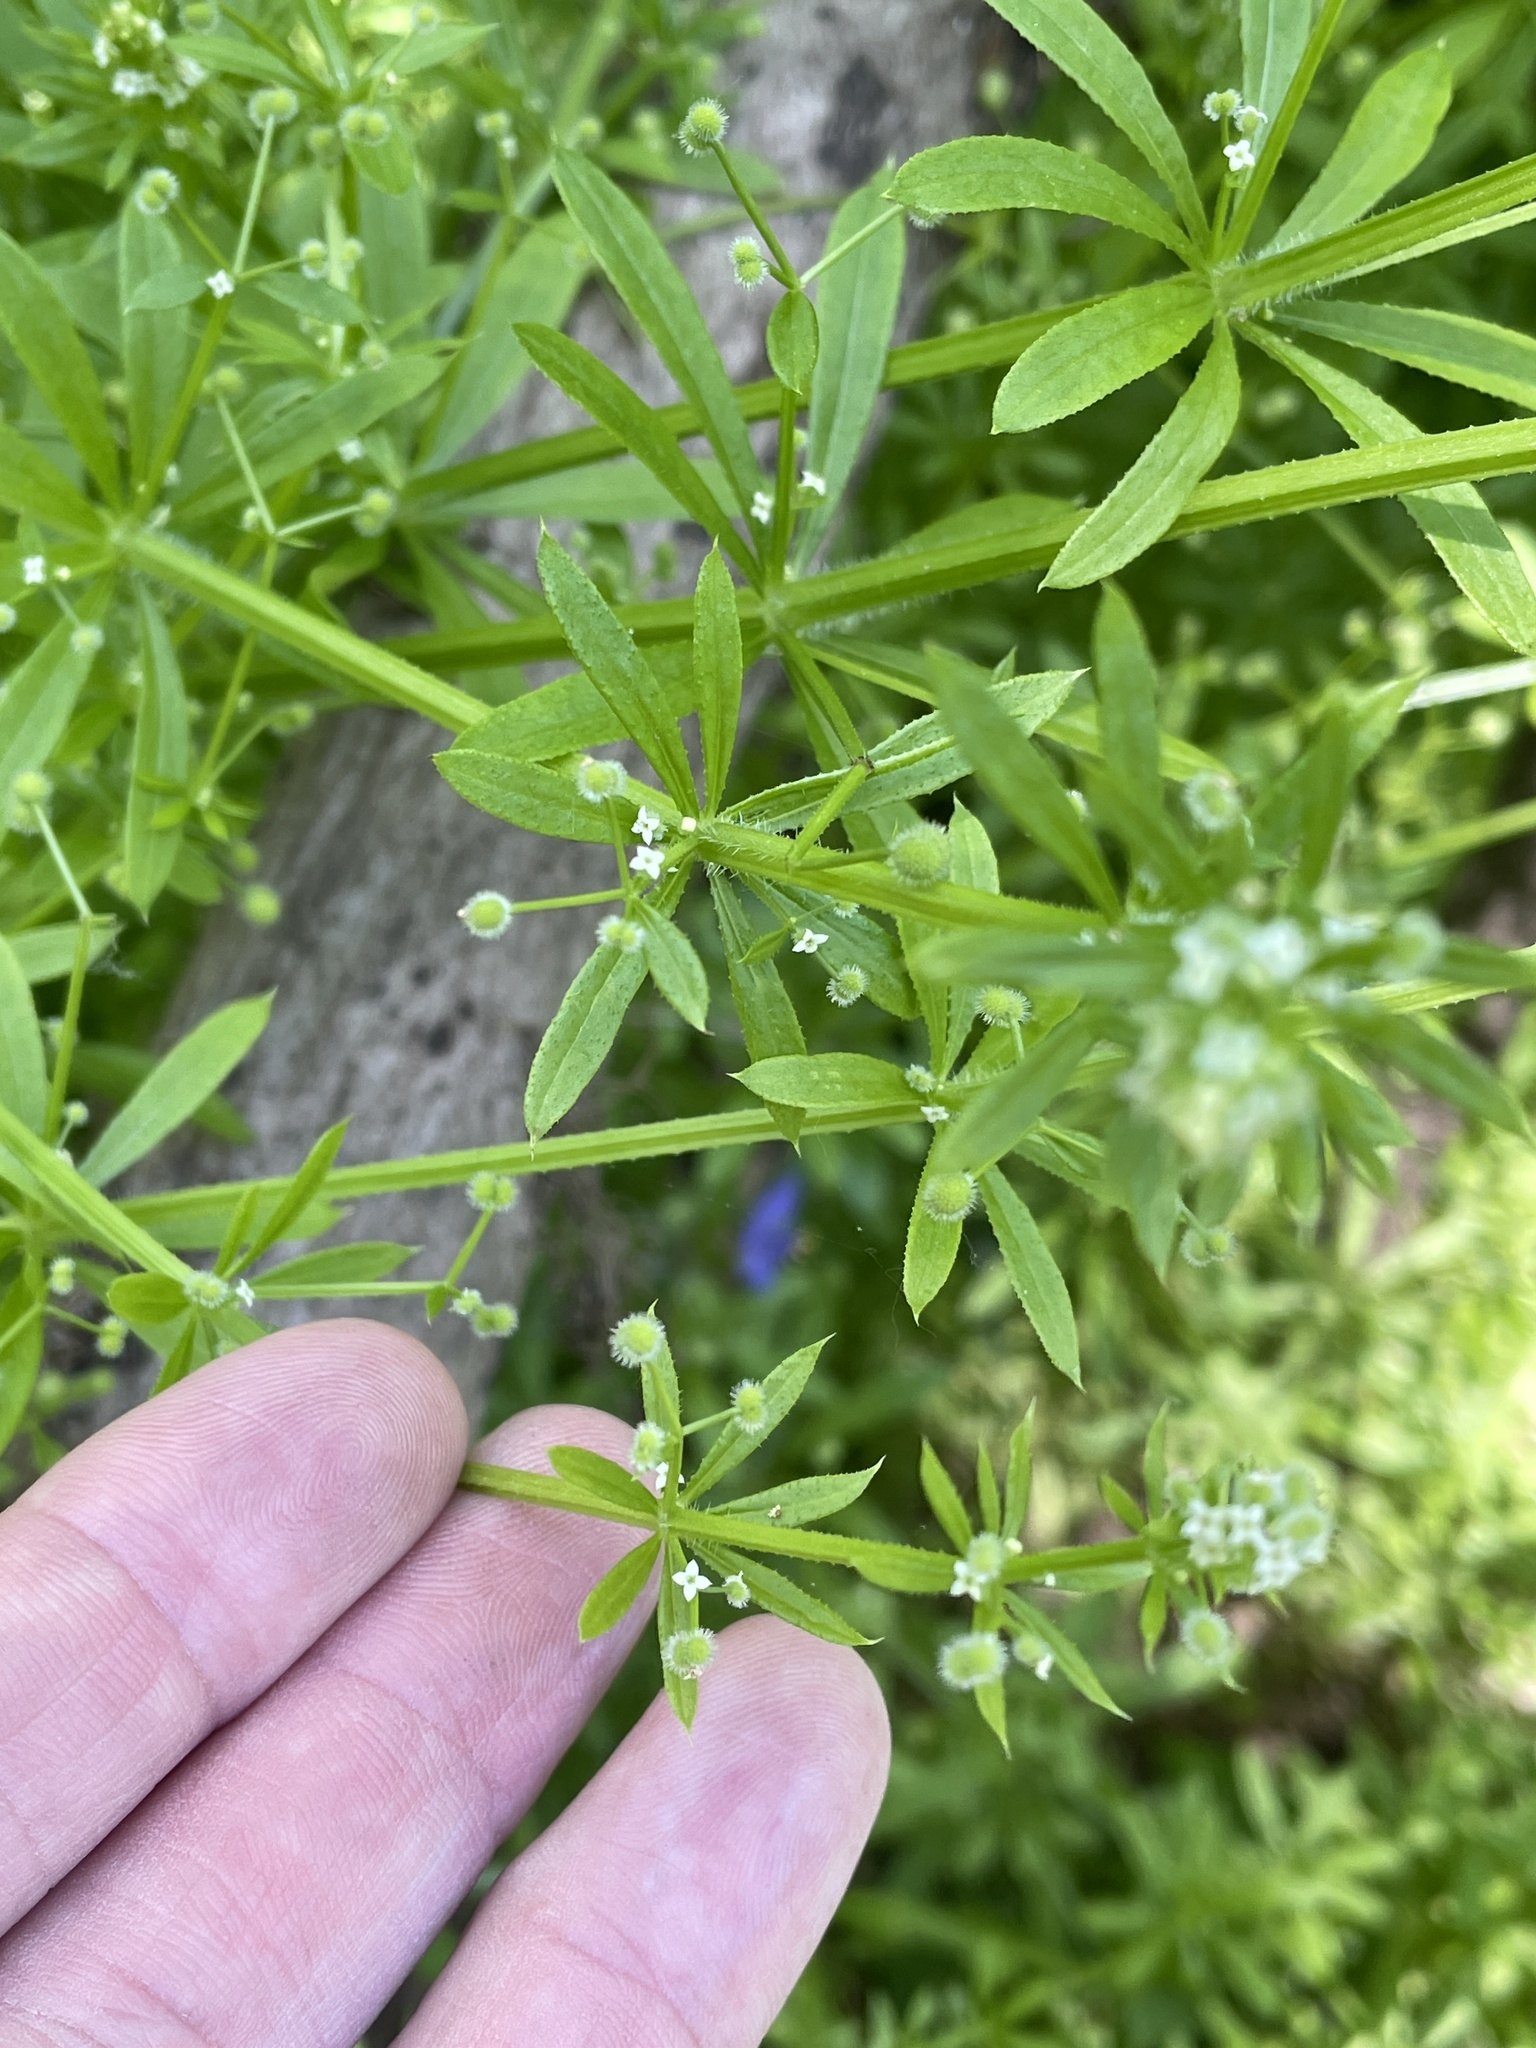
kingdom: Plantae
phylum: Tracheophyta
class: Magnoliopsida
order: Gentianales
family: Rubiaceae
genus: Galium
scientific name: Galium aparine
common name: Cleavers
